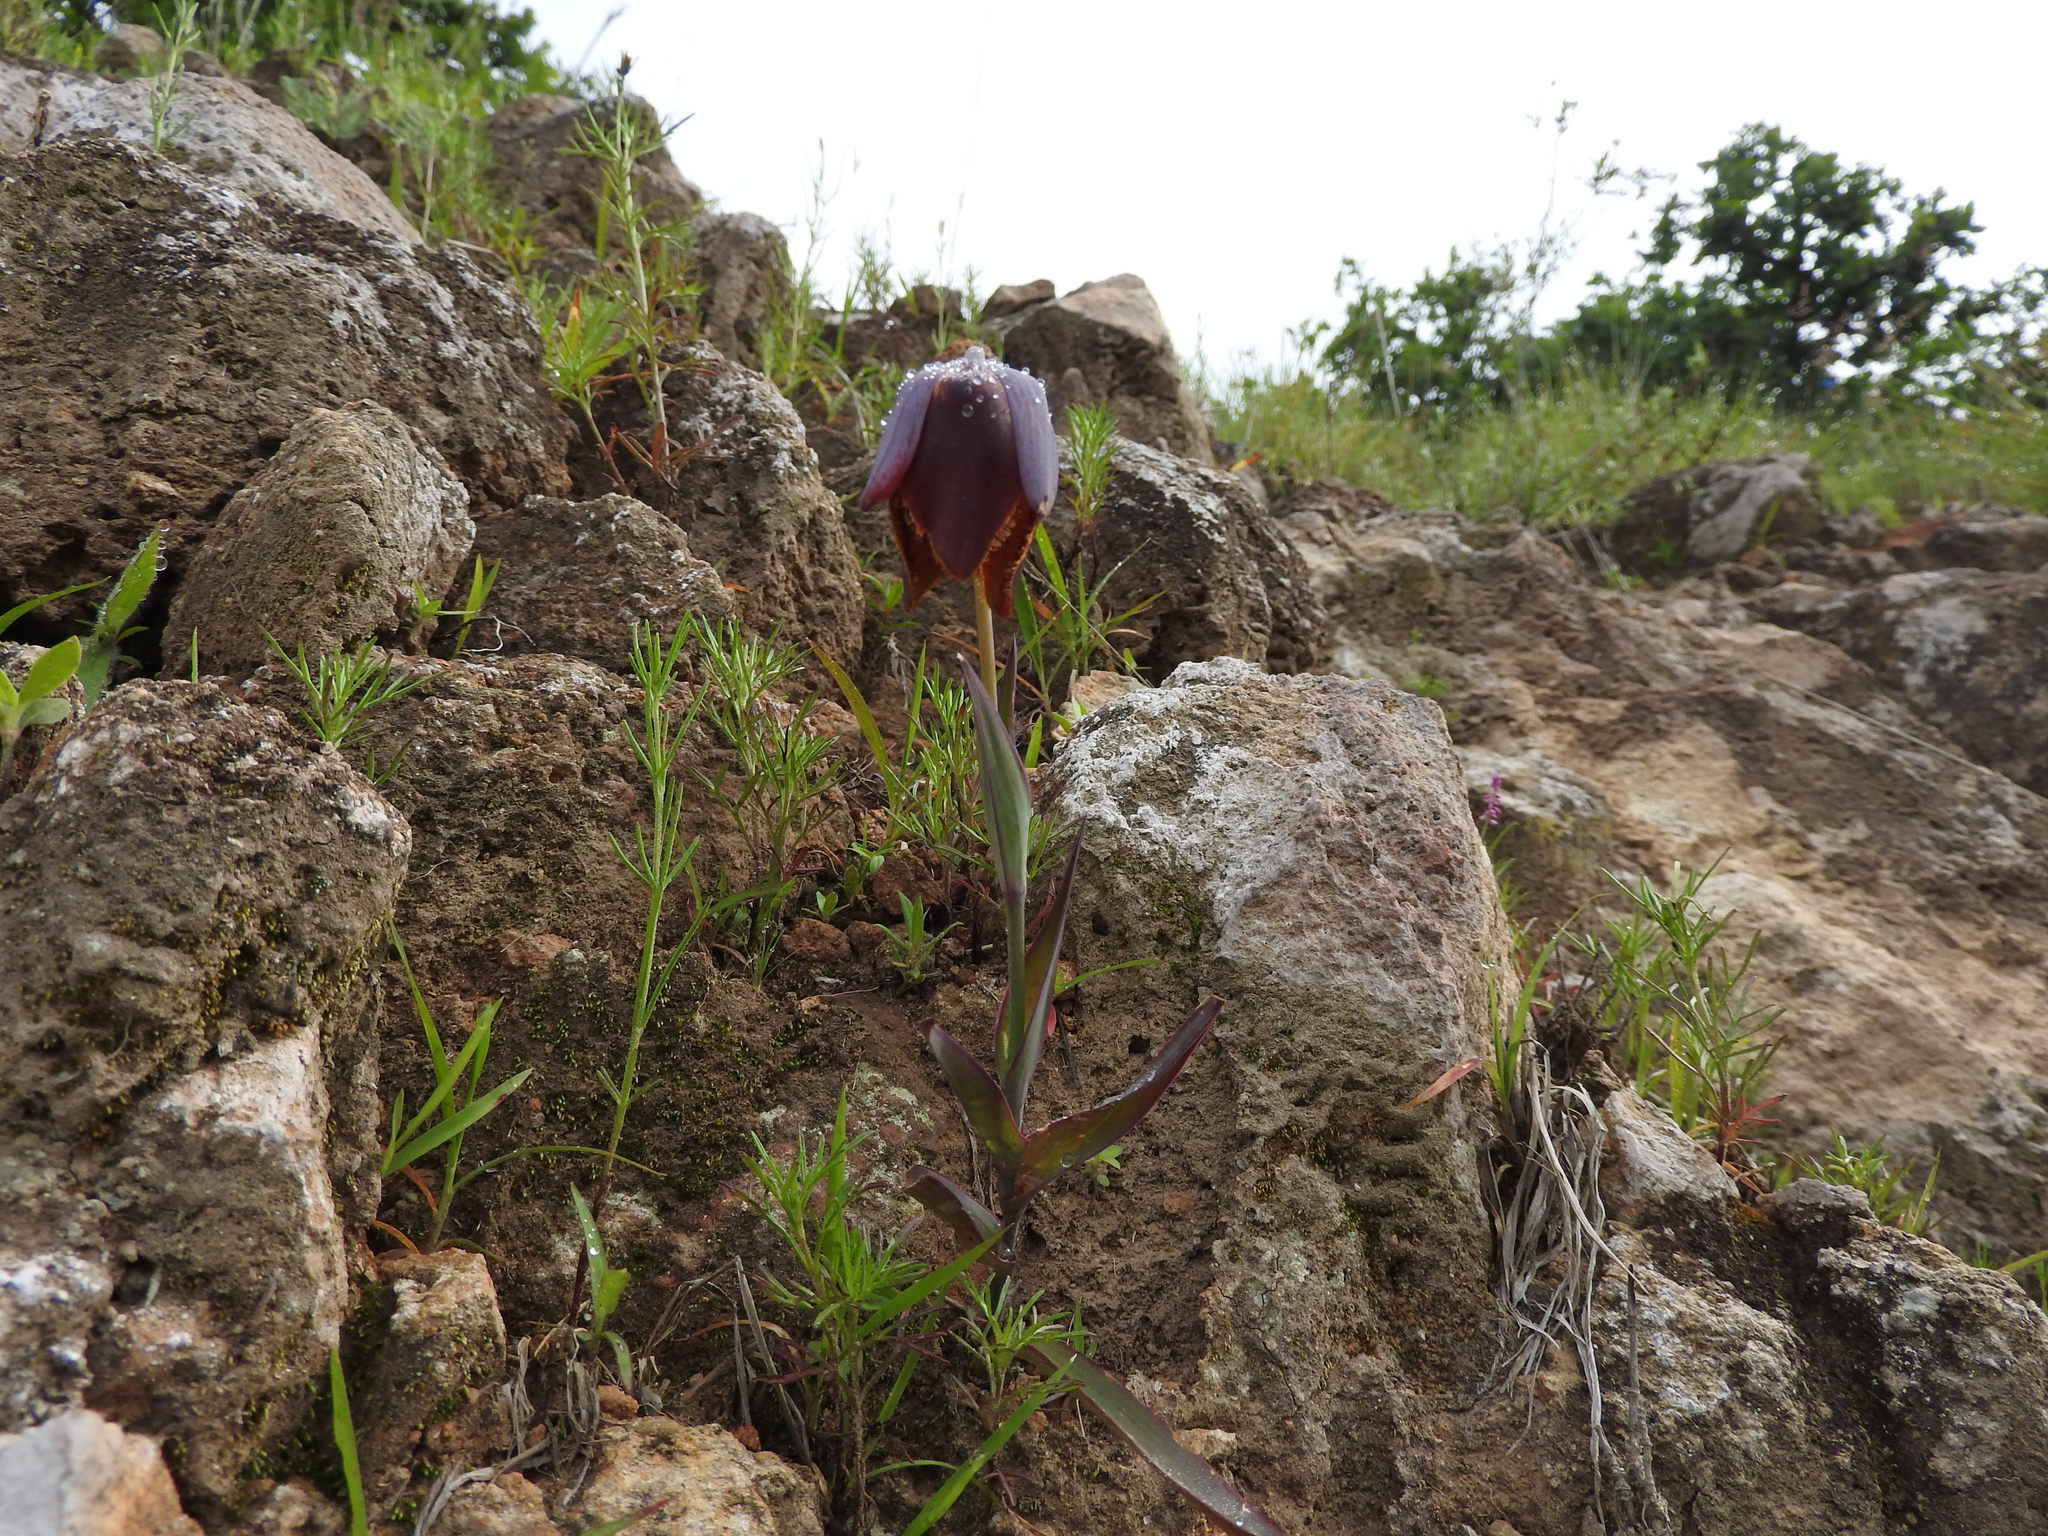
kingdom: Plantae
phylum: Tracheophyta
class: Liliopsida
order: Liliales
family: Liliaceae
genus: Calochortus
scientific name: Calochortus purpureus
